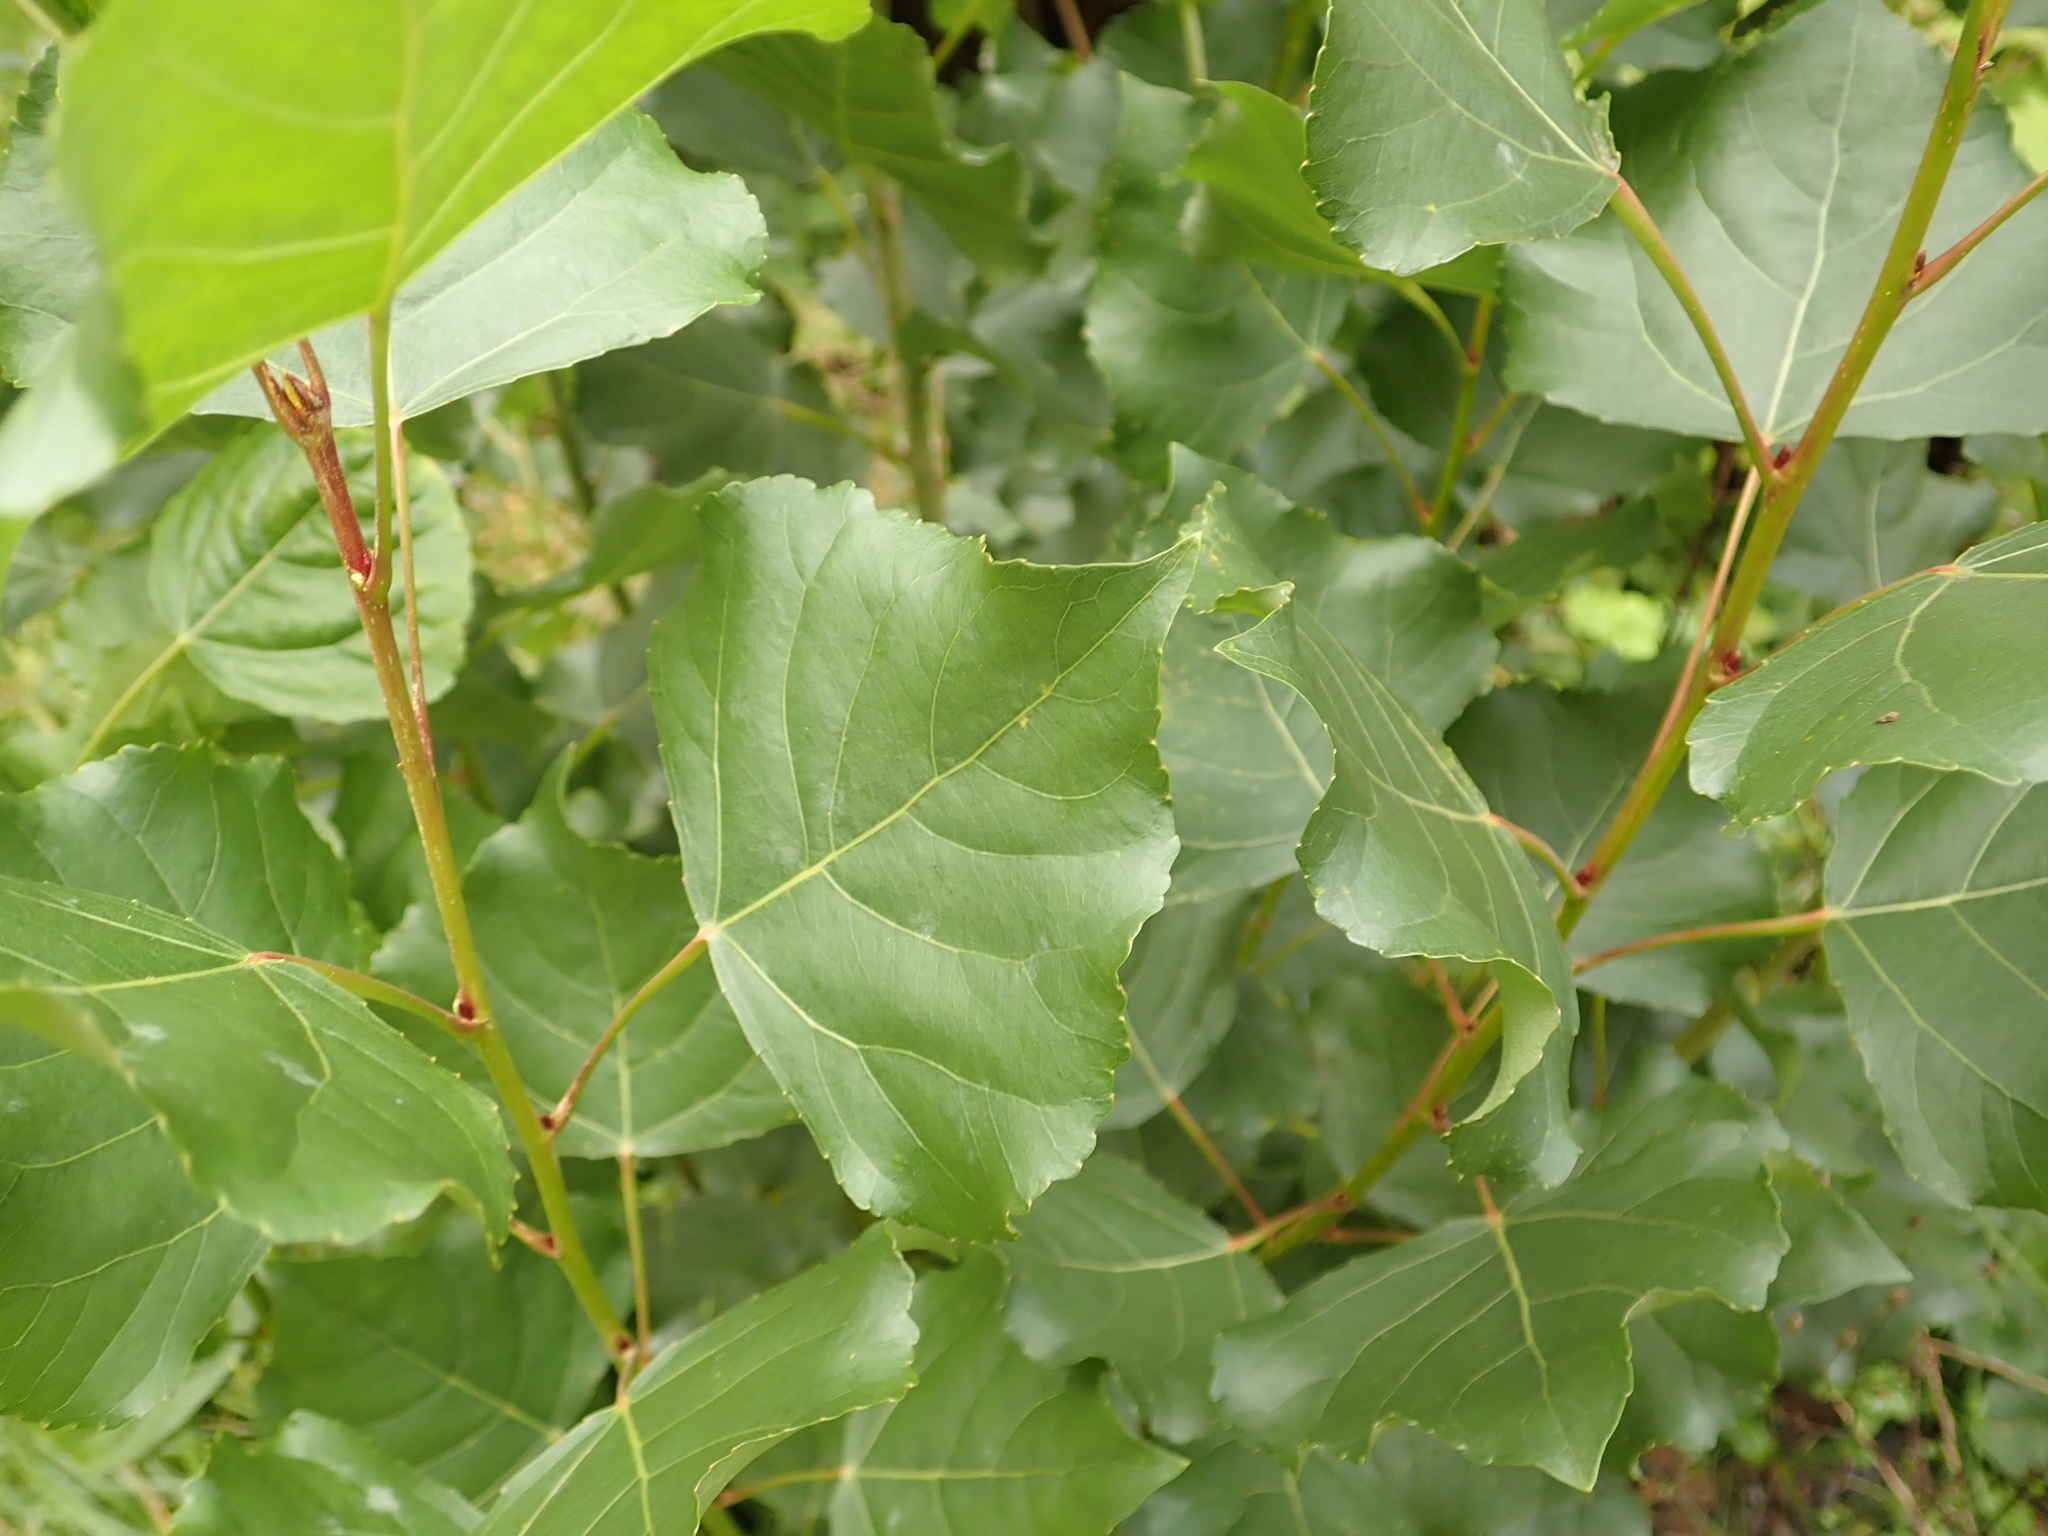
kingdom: Plantae
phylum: Tracheophyta
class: Magnoliopsida
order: Malpighiales
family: Salicaceae
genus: Populus
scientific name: Populus nigra
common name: Black poplar
